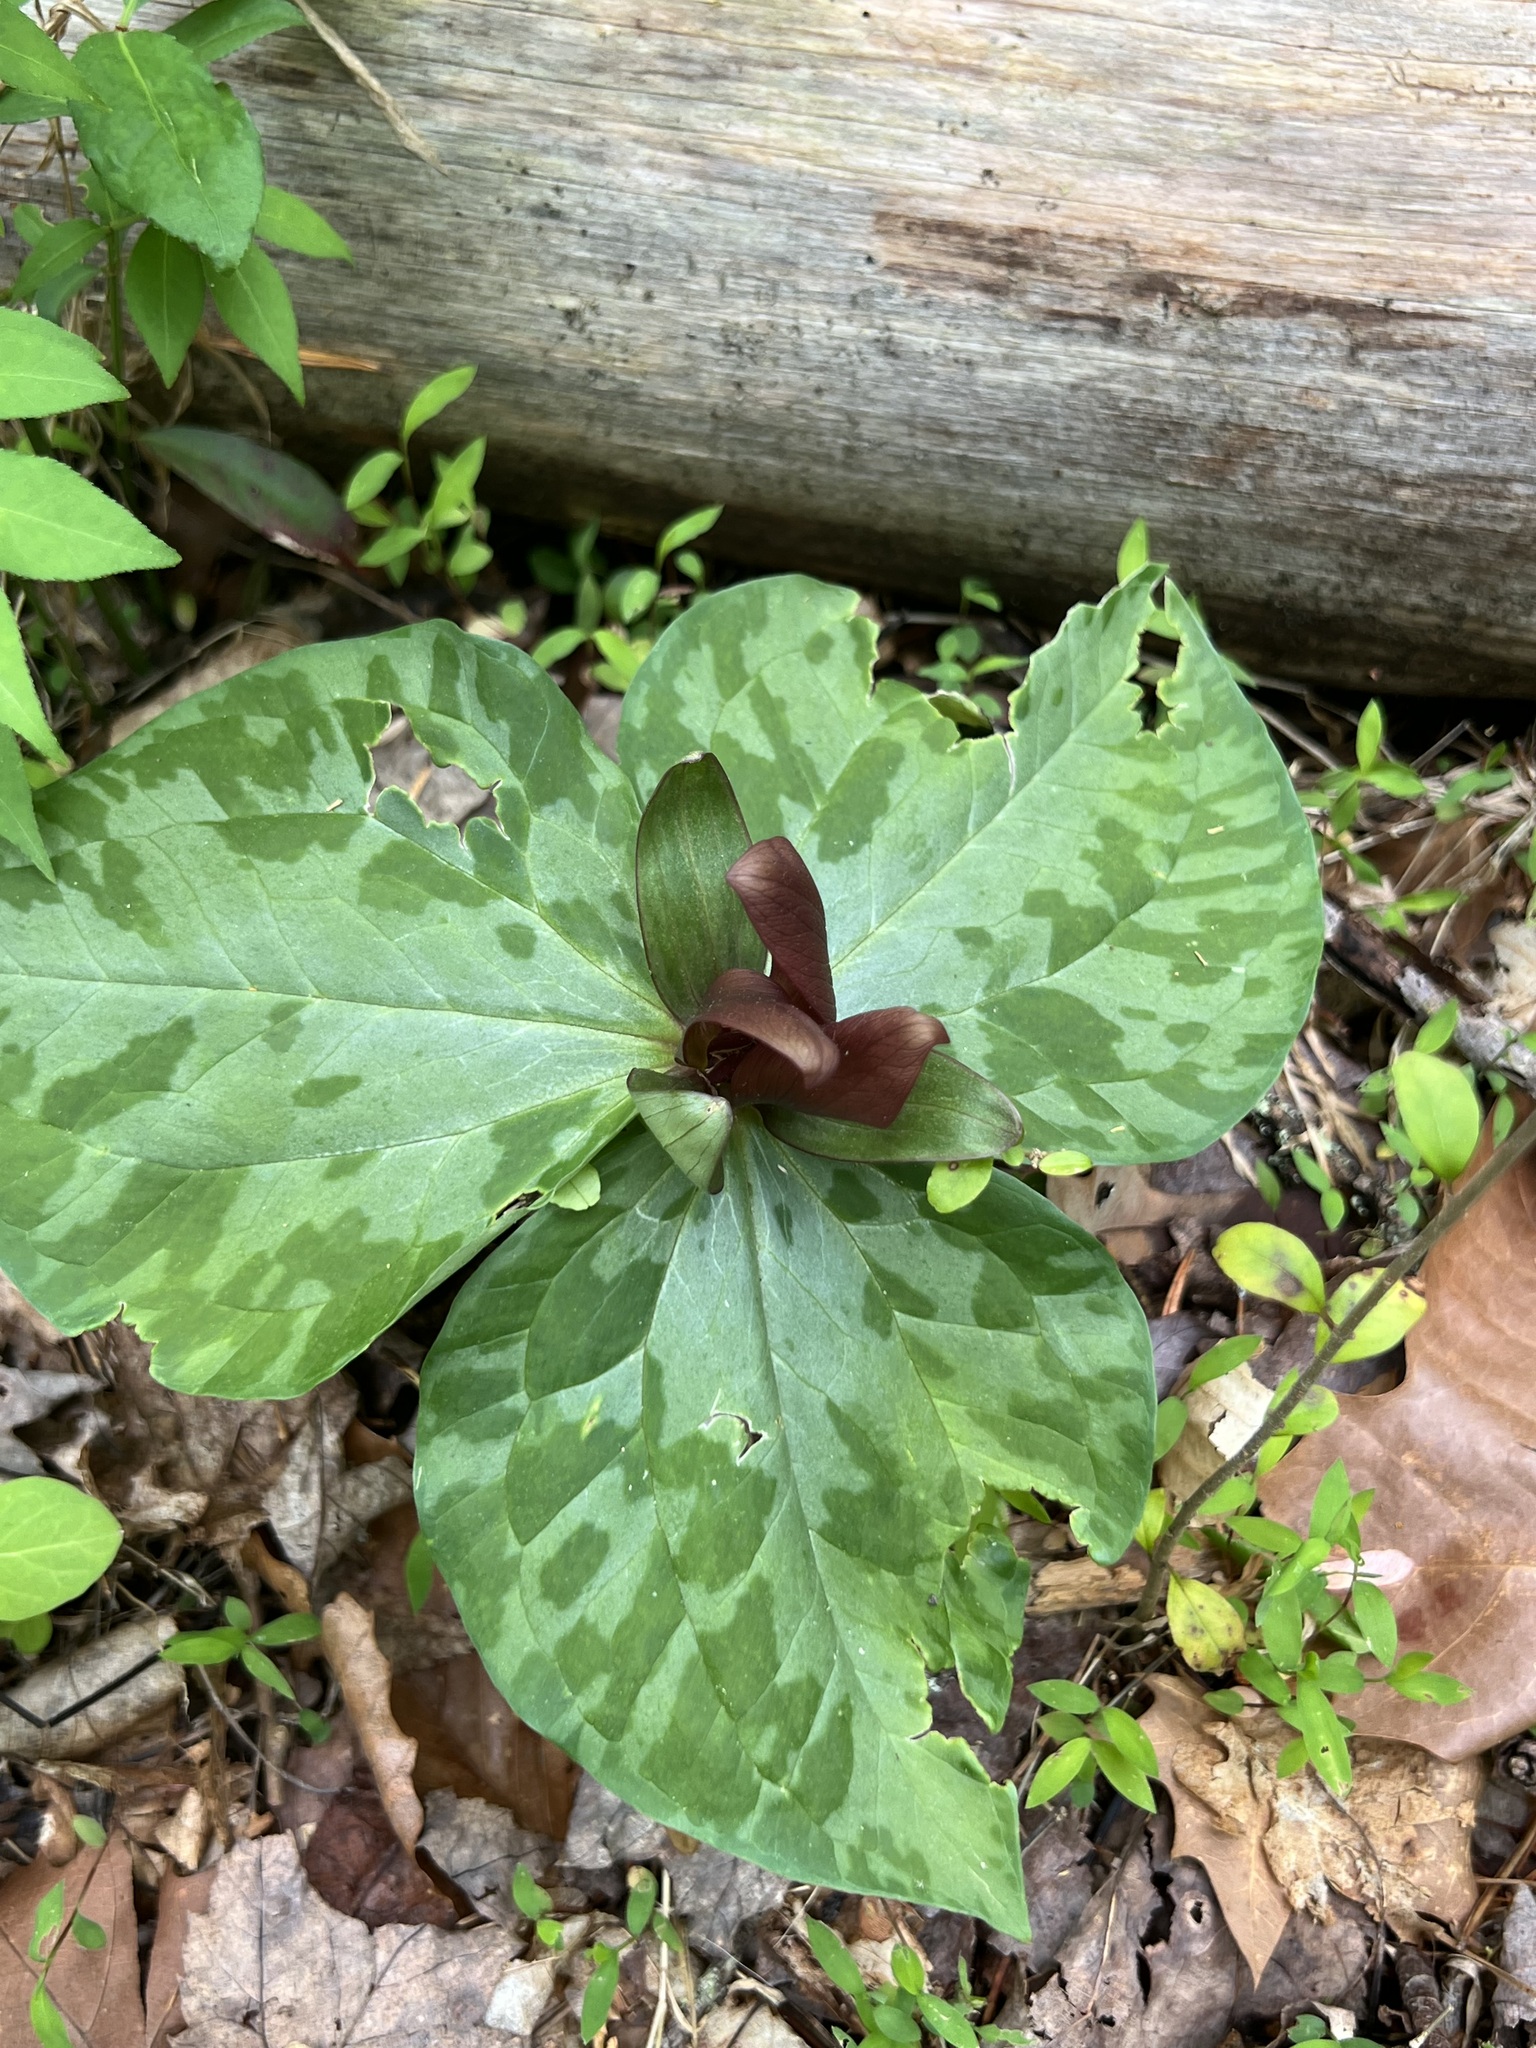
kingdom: Plantae
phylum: Tracheophyta
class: Liliopsida
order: Liliales
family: Melanthiaceae
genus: Trillium
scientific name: Trillium cuneatum
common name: Cuneate trillium
